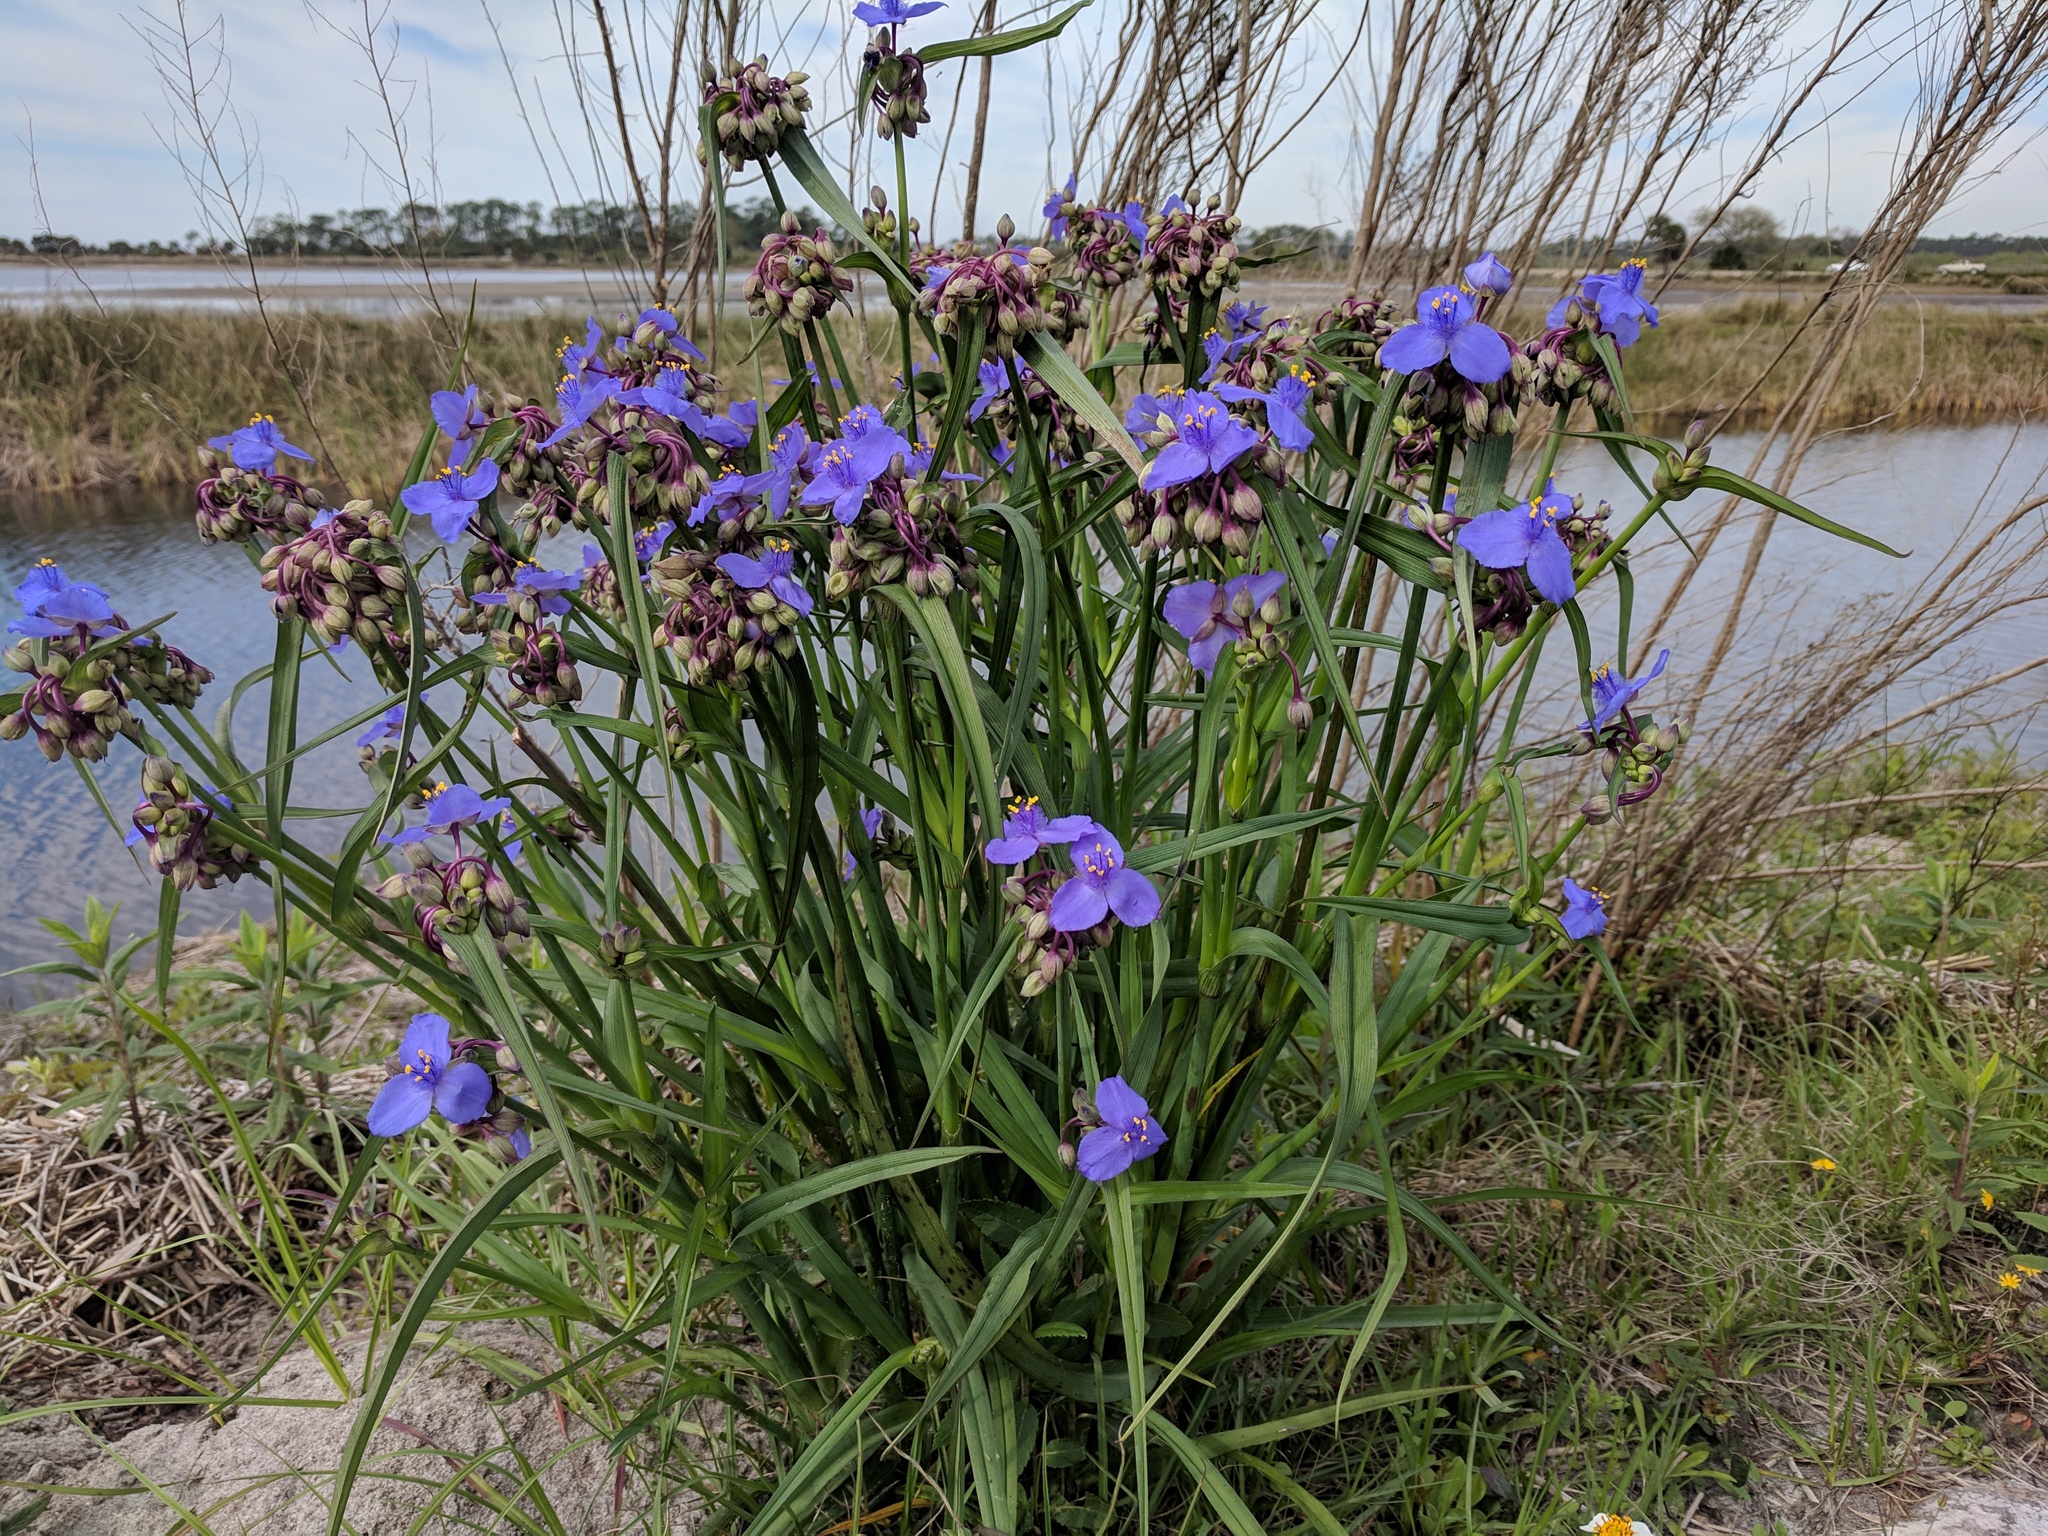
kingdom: Plantae
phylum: Tracheophyta
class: Liliopsida
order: Commelinales
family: Commelinaceae
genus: Tradescantia
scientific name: Tradescantia ohiensis
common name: Ohio spiderwort
